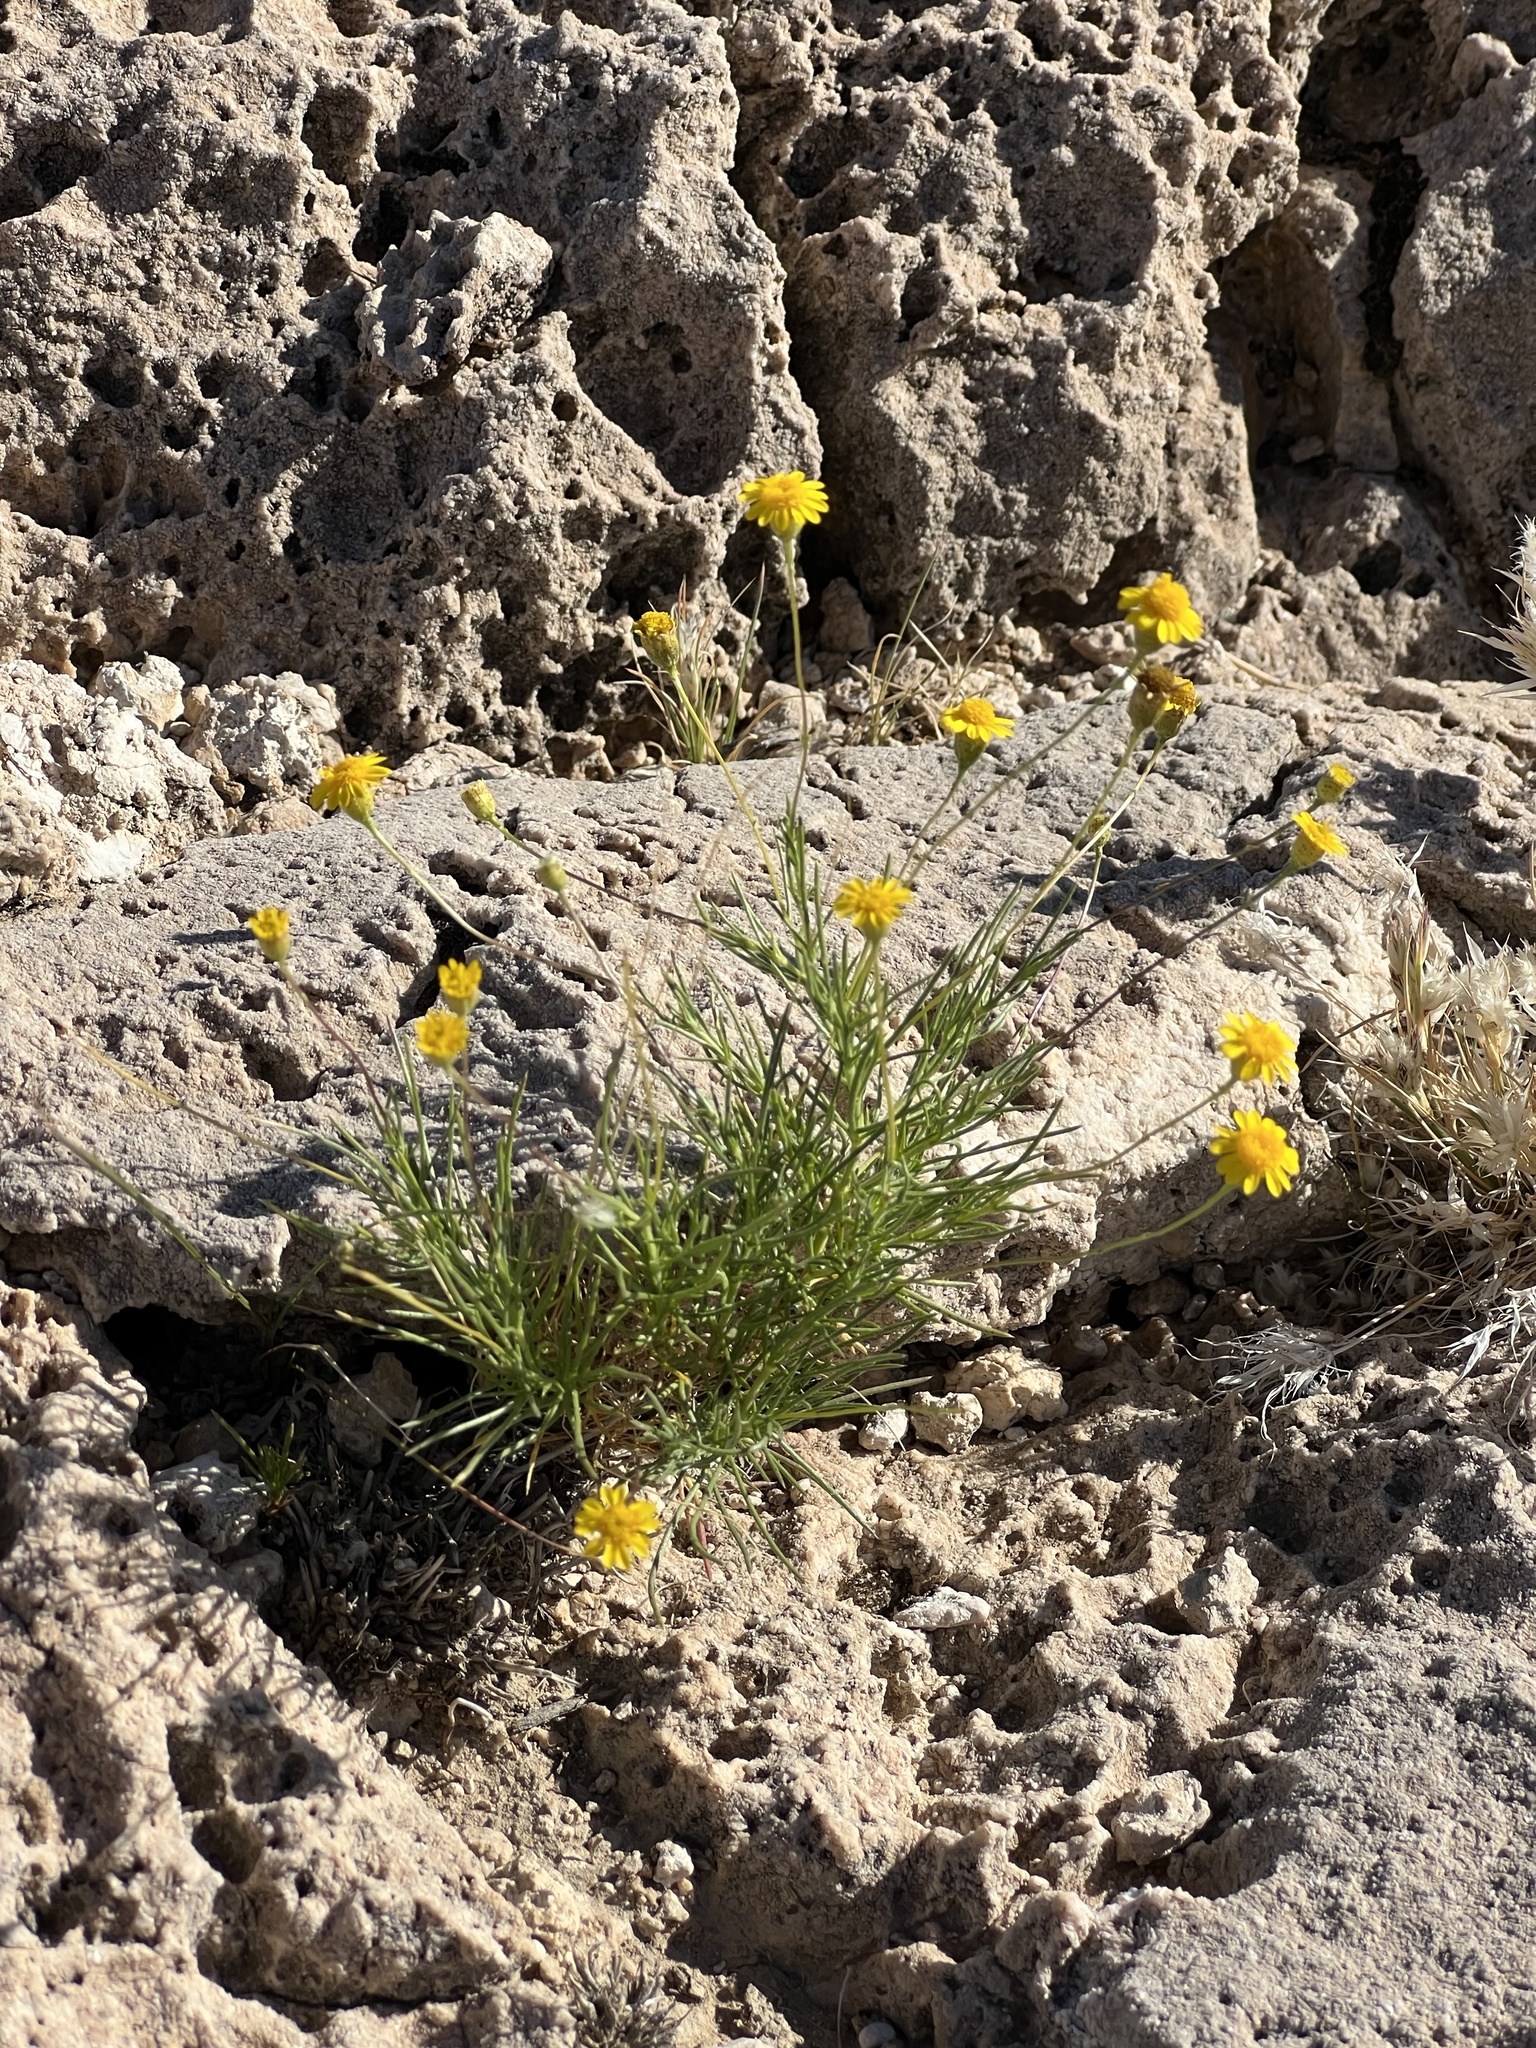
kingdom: Plantae
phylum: Tracheophyta
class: Magnoliopsida
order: Asterales
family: Asteraceae
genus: Thymophylla
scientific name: Thymophylla pentachaeta
